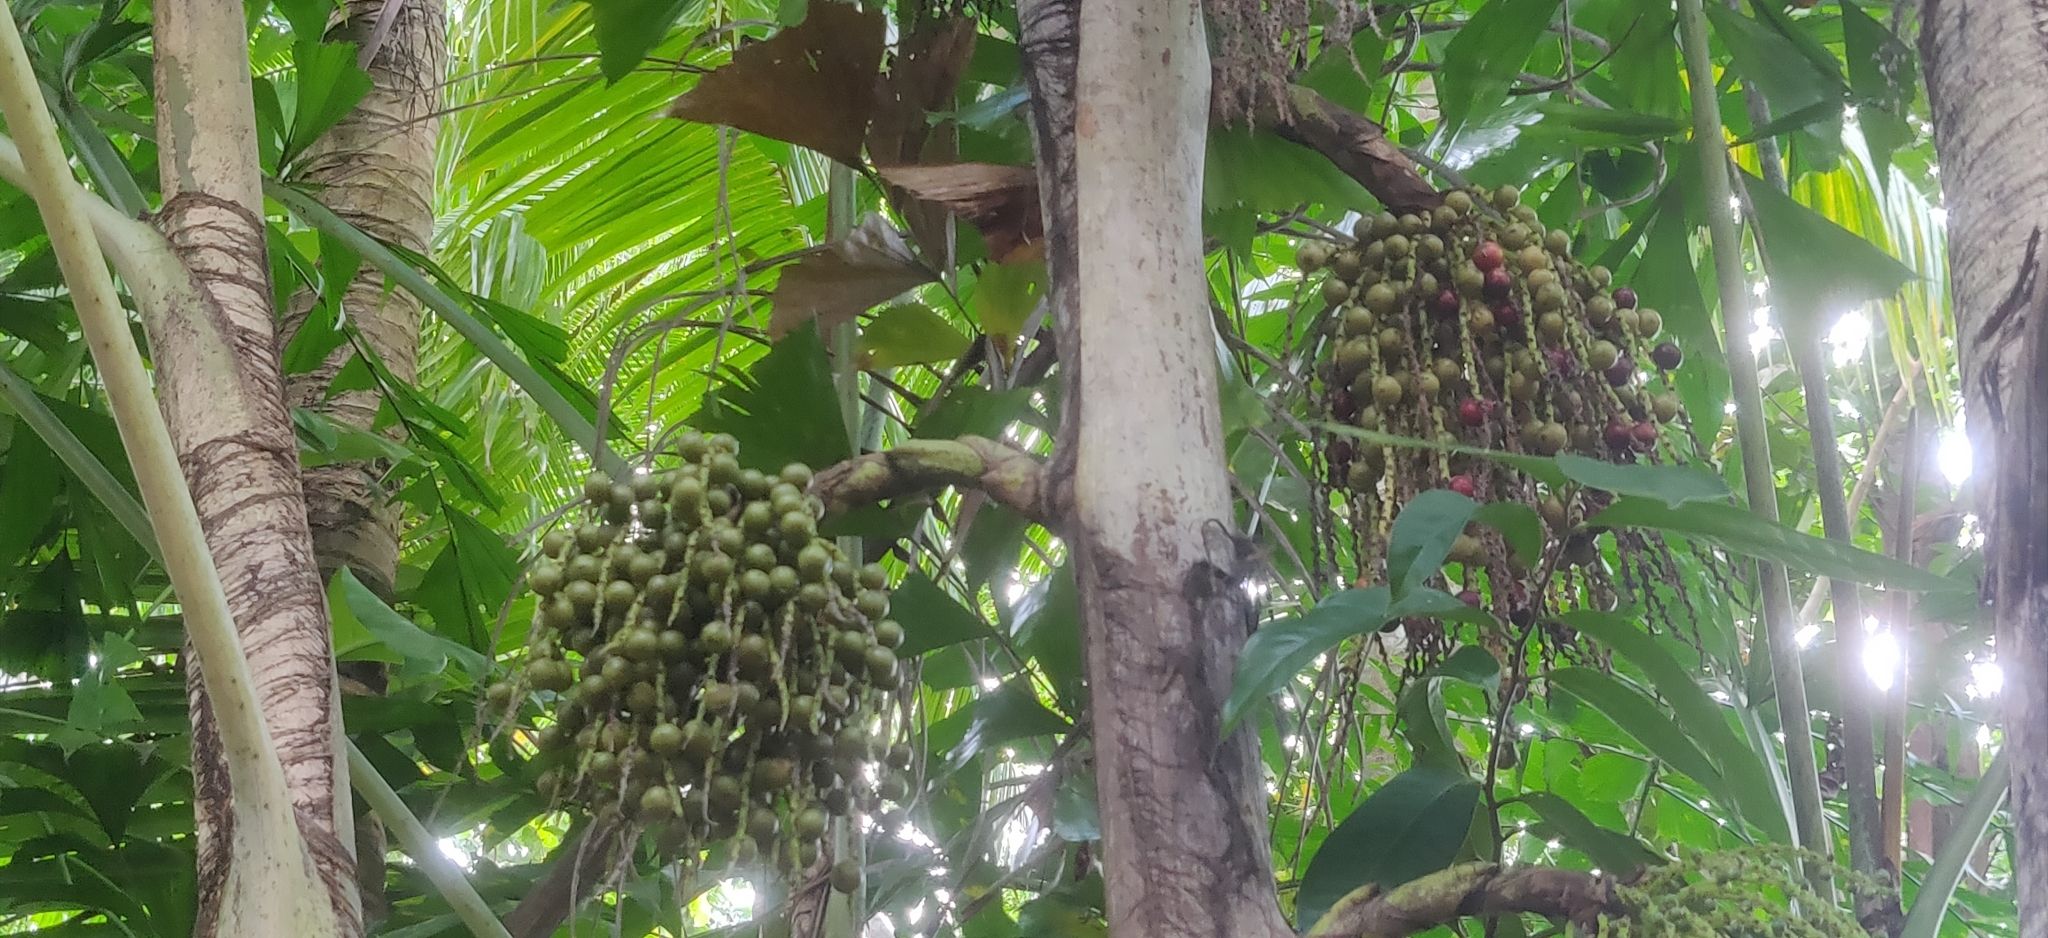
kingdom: Plantae
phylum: Tracheophyta
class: Liliopsida
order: Arecales
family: Arecaceae
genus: Caryota
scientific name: Caryota mitis
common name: Burmese fishtail palm
